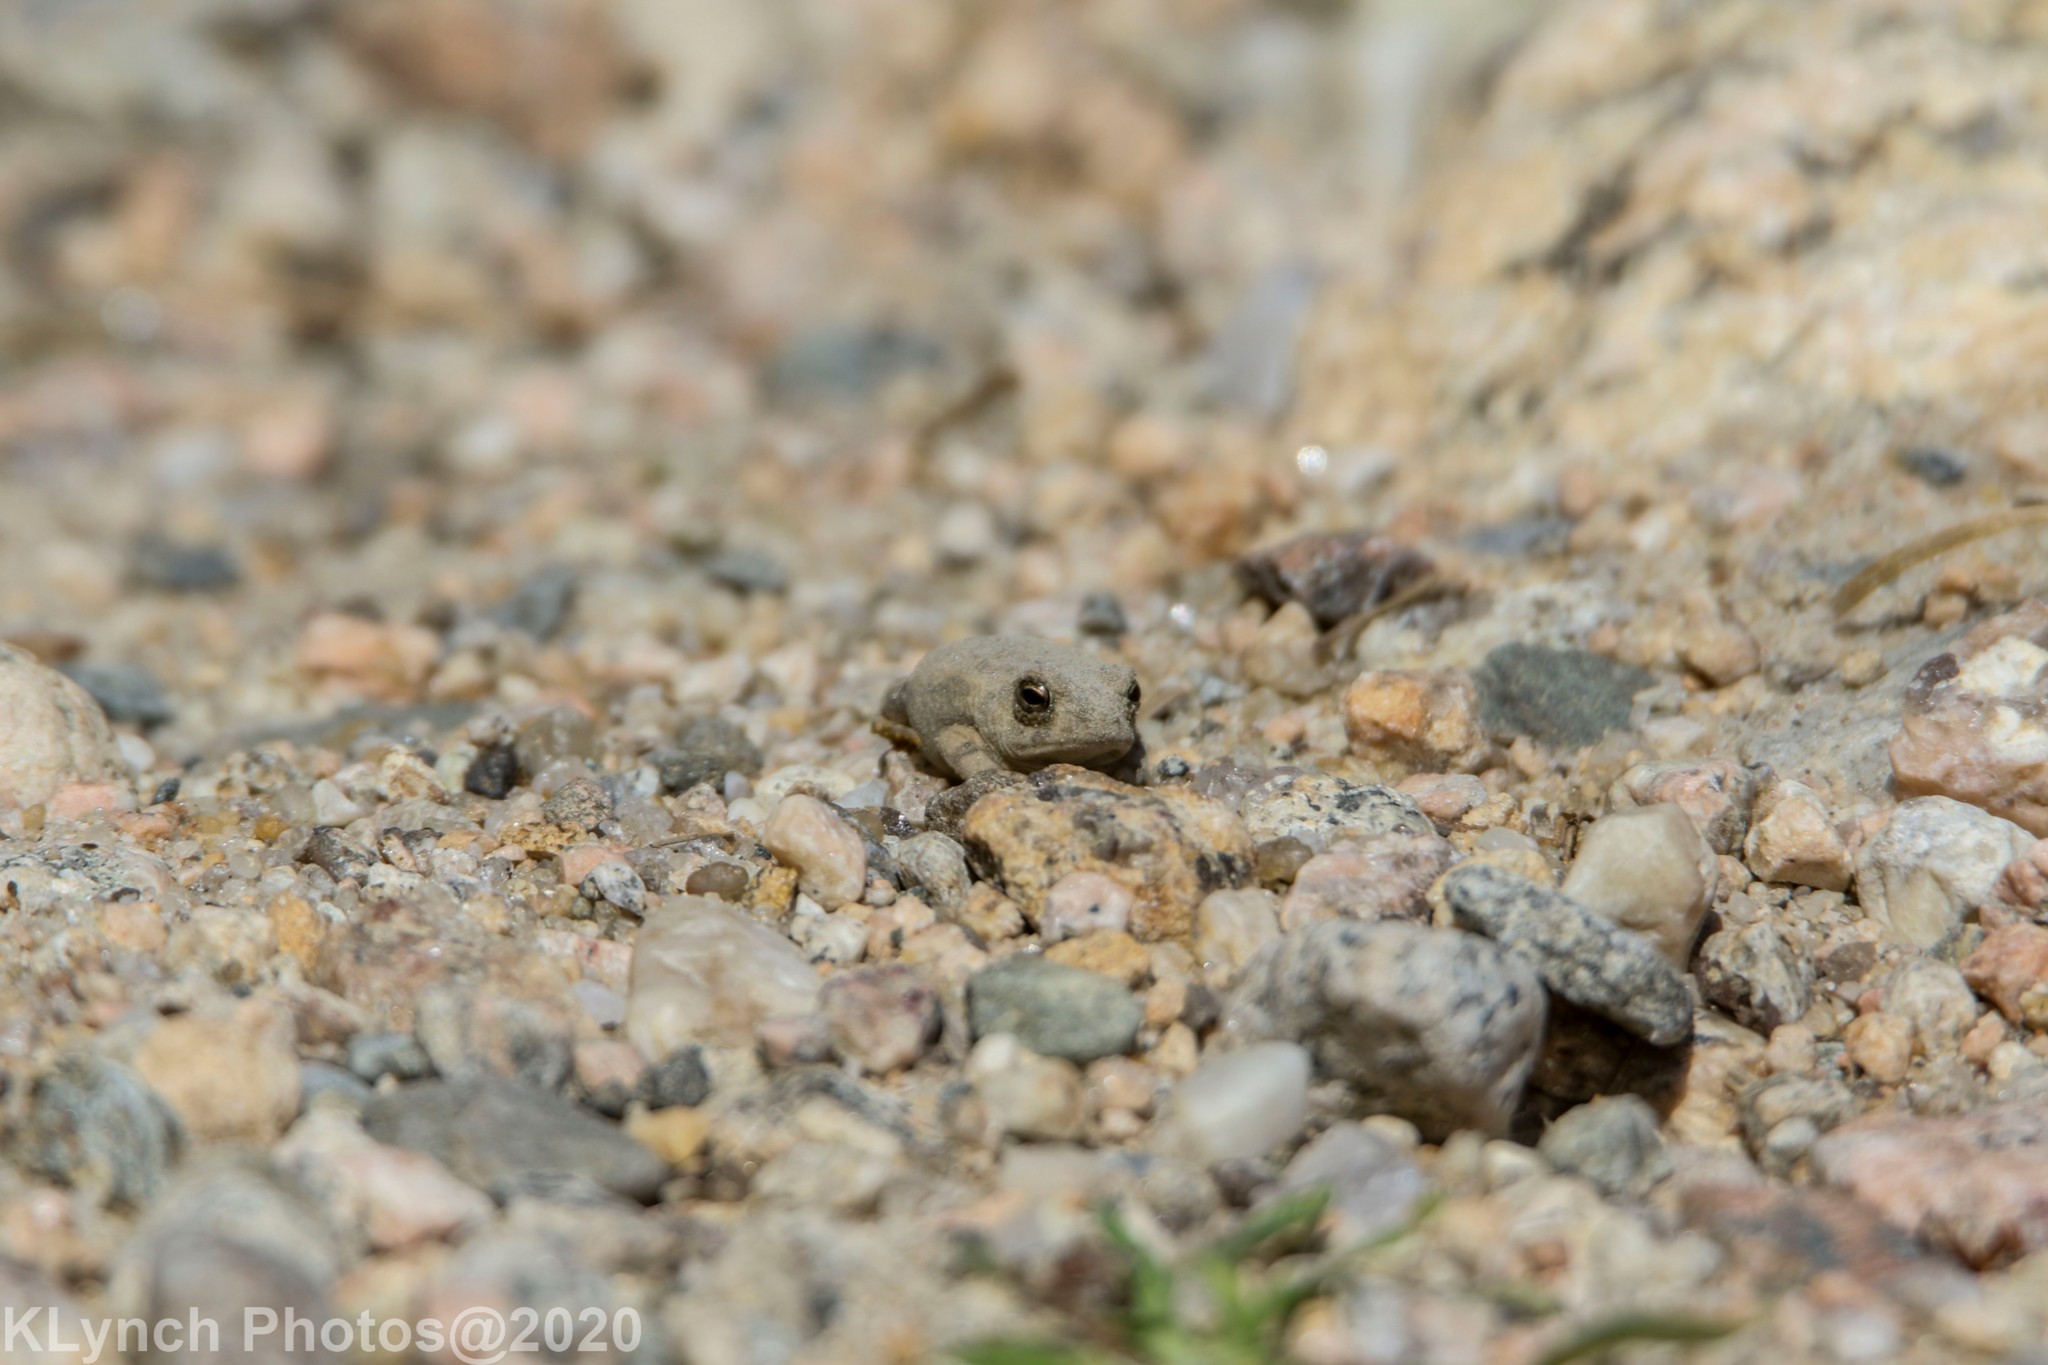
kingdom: Animalia
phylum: Chordata
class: Amphibia
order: Anura
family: Bufonidae
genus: Anaxyrus
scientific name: Anaxyrus fowleri
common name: Fowler's toad
